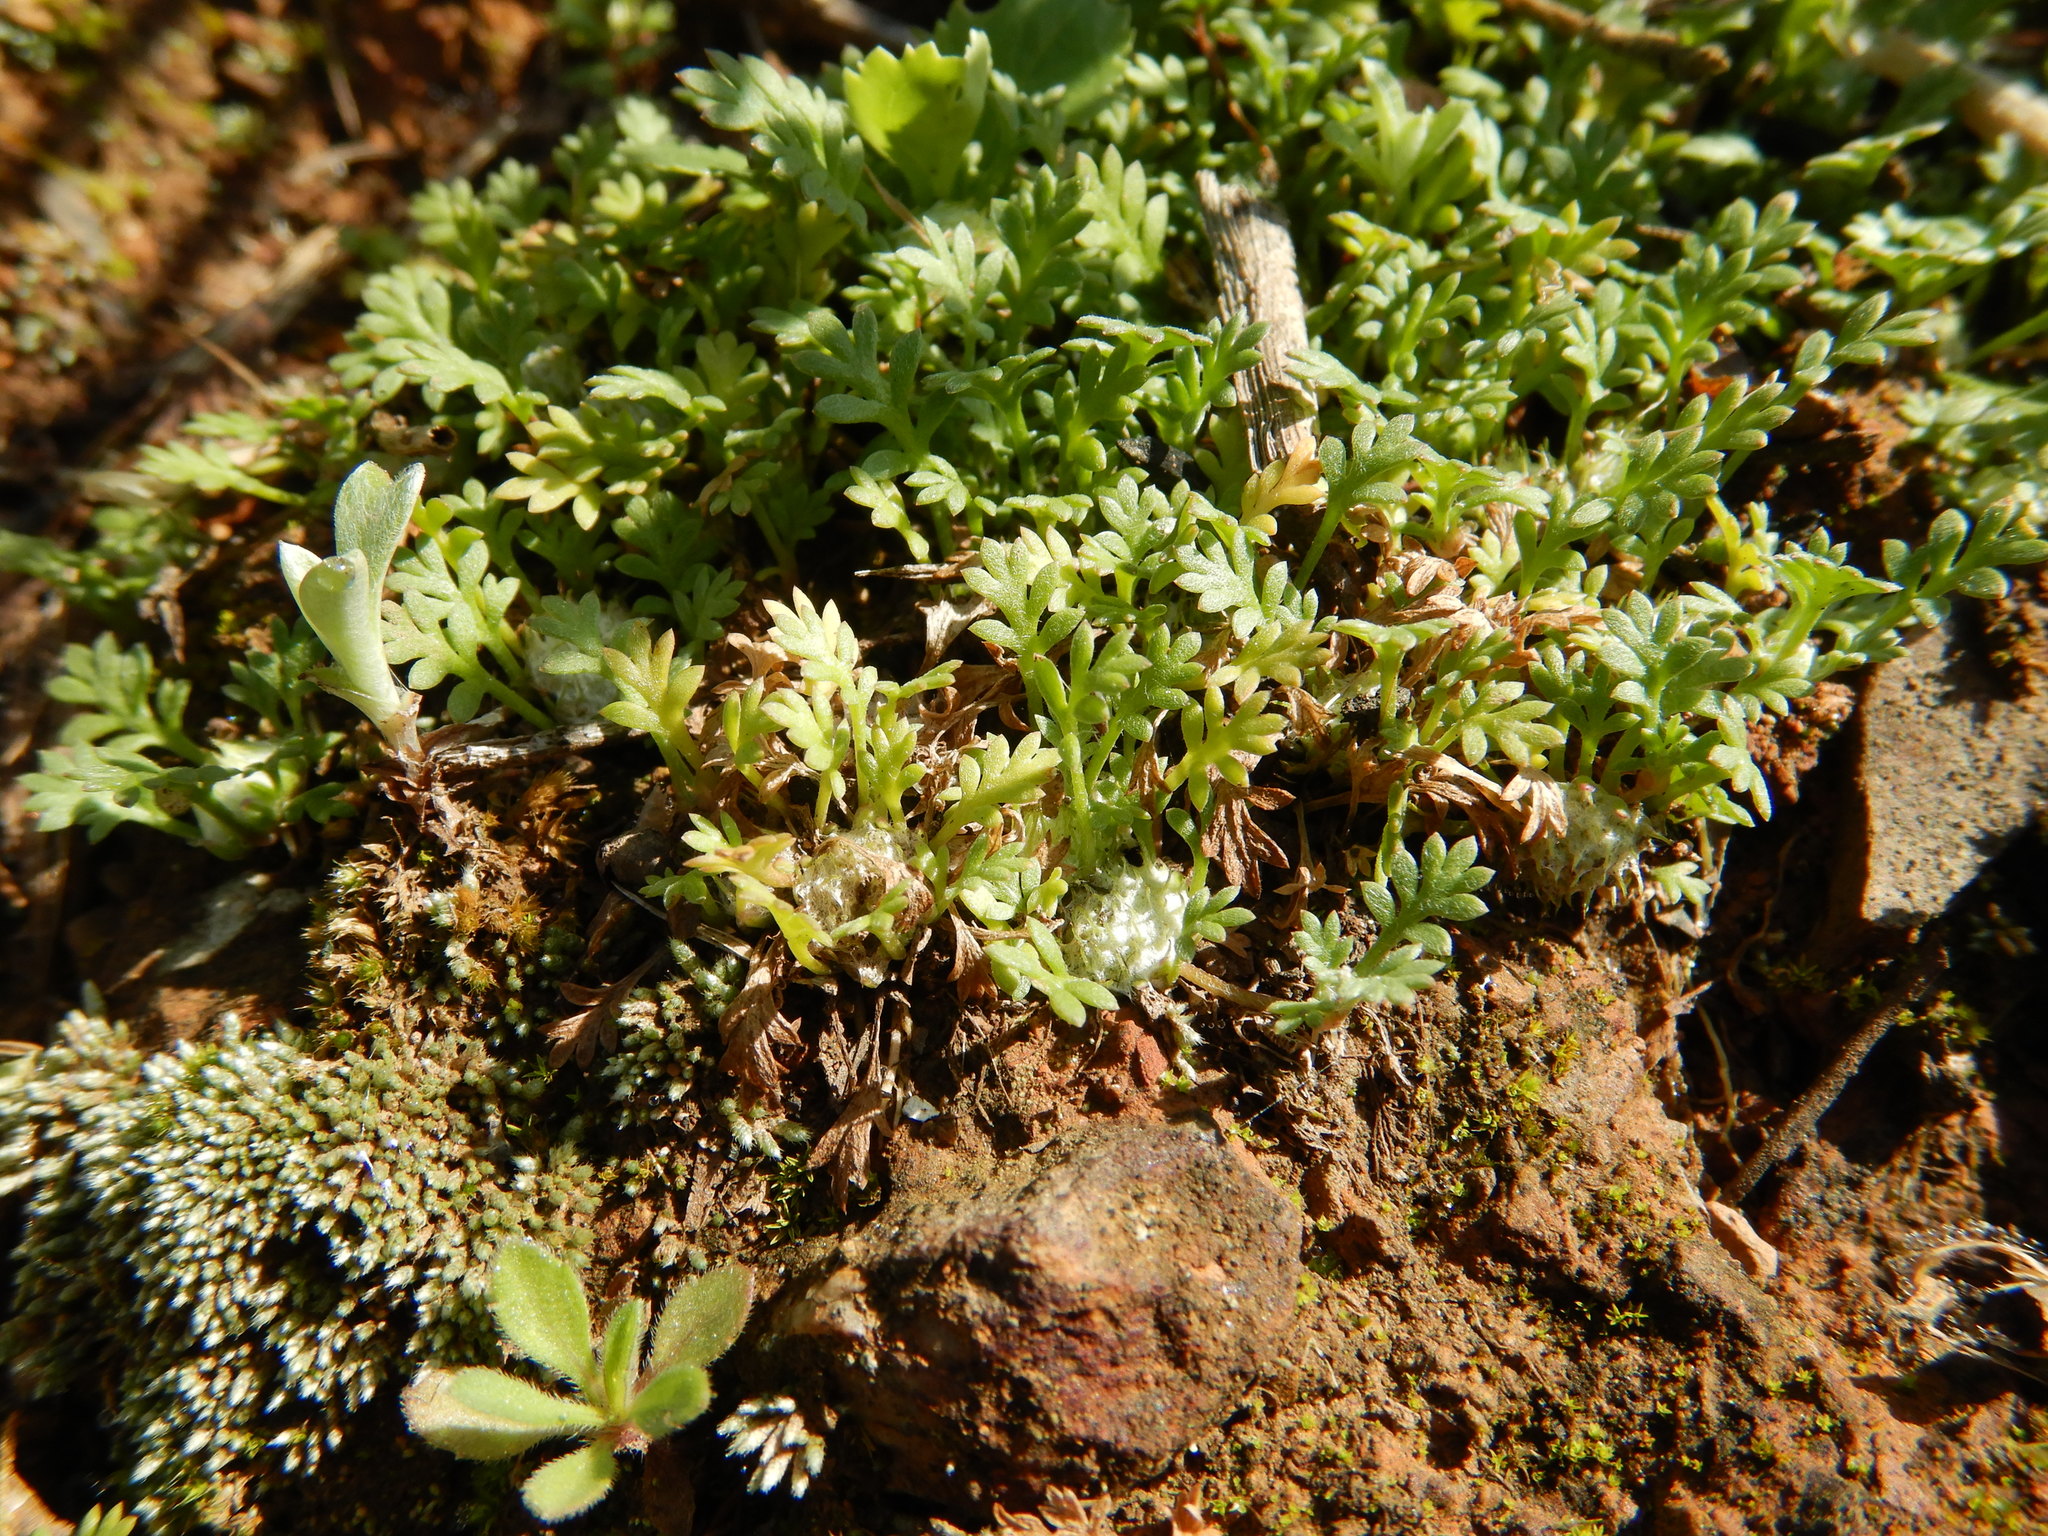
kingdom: Plantae
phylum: Tracheophyta
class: Magnoliopsida
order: Asterales
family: Asteraceae
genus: Soliva
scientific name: Soliva stolonifera
